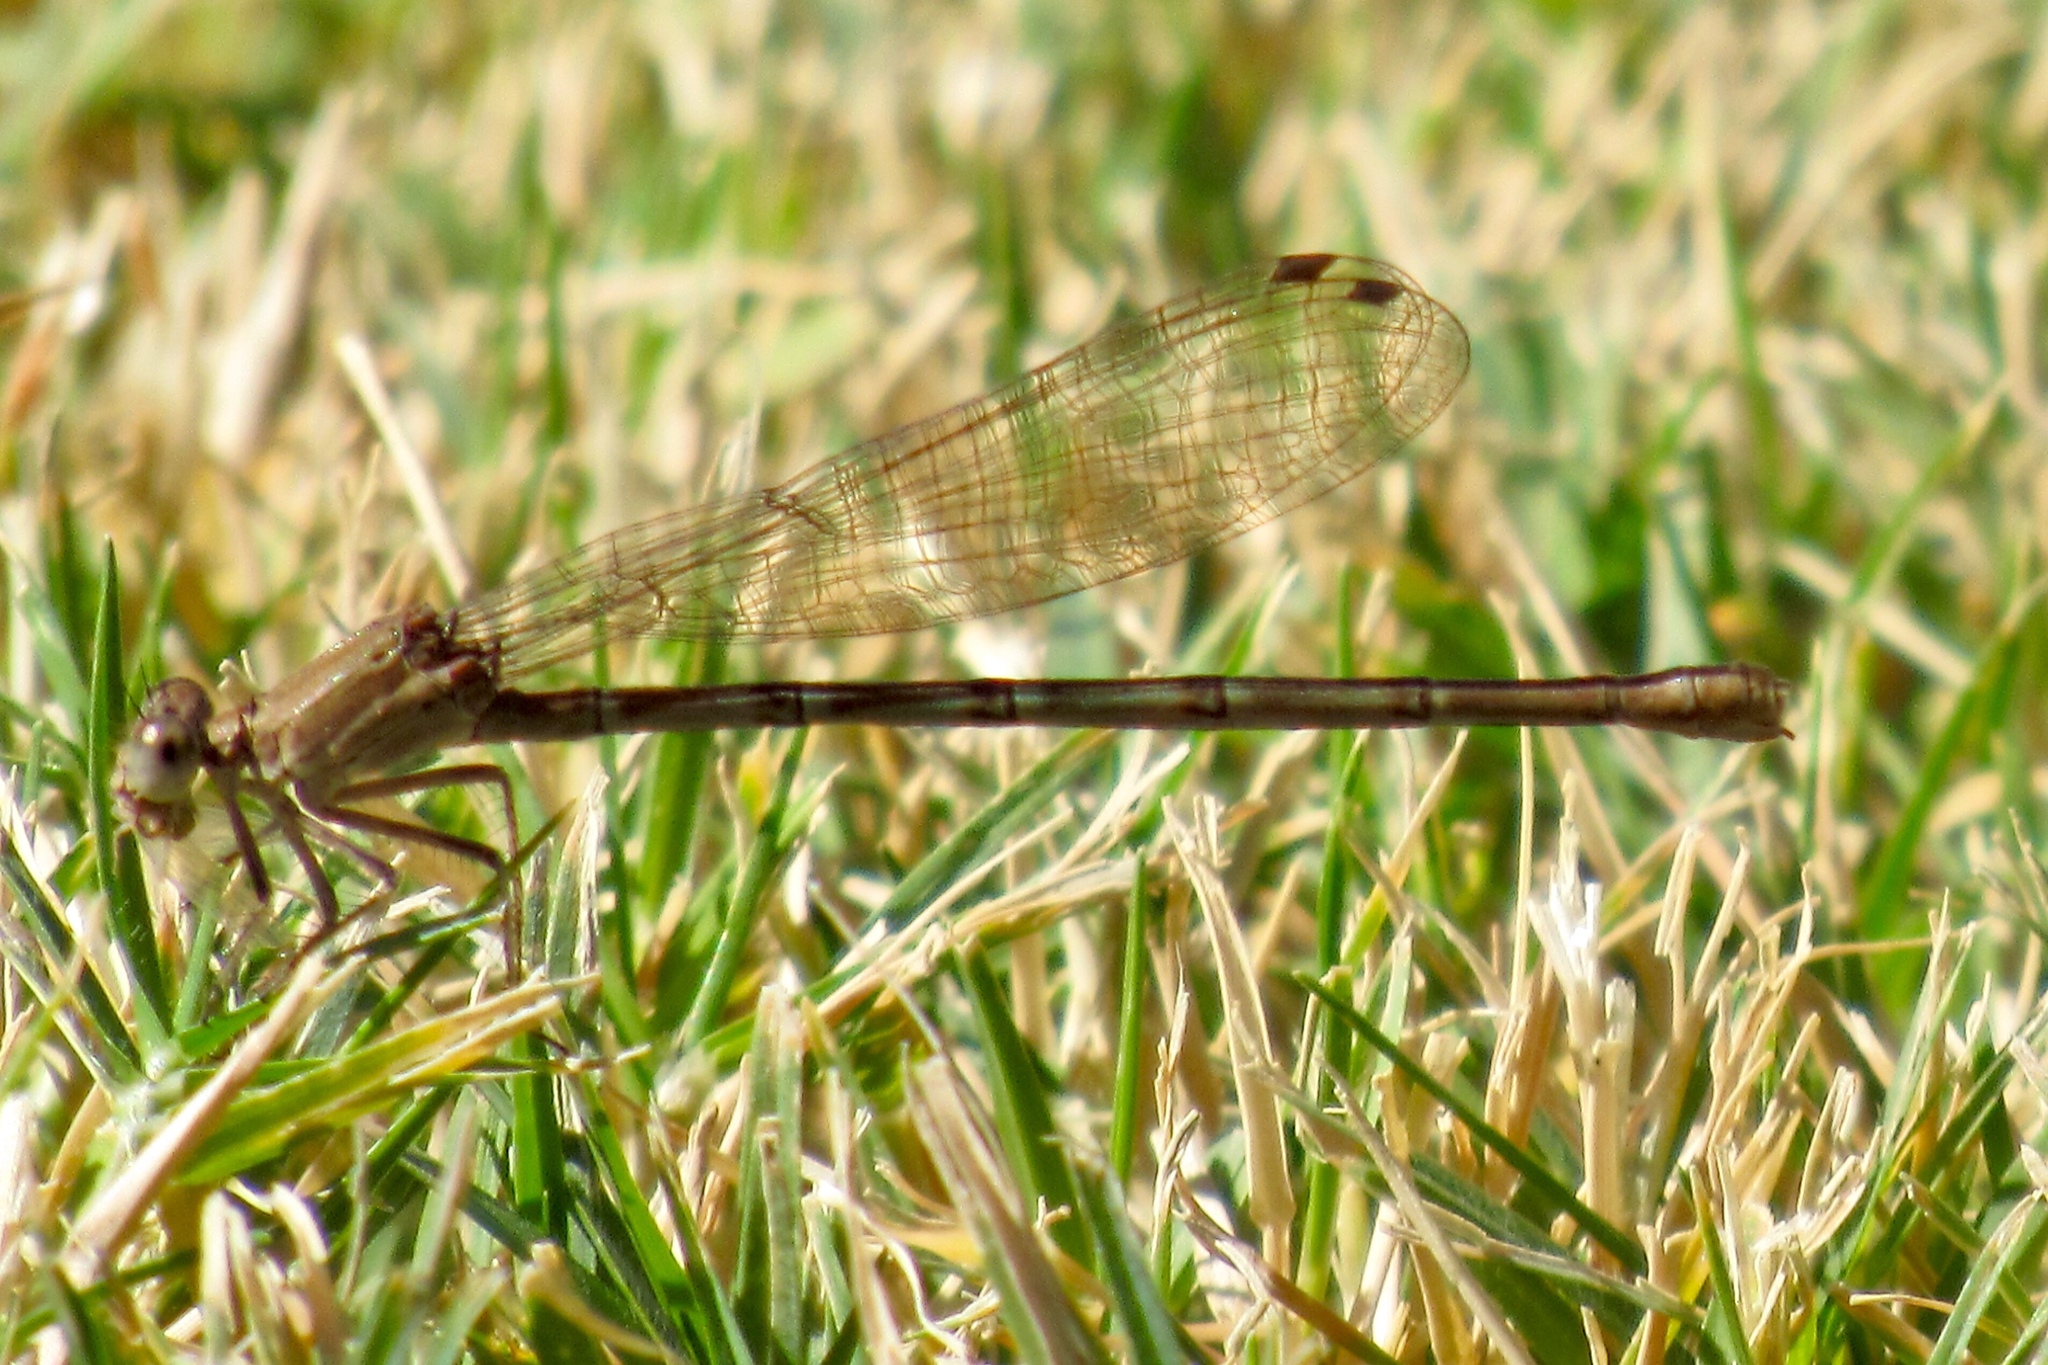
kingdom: Animalia
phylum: Arthropoda
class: Insecta
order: Odonata
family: Coenagrionidae
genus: Argia
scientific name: Argia sedula
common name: Blue-ringed dancer
